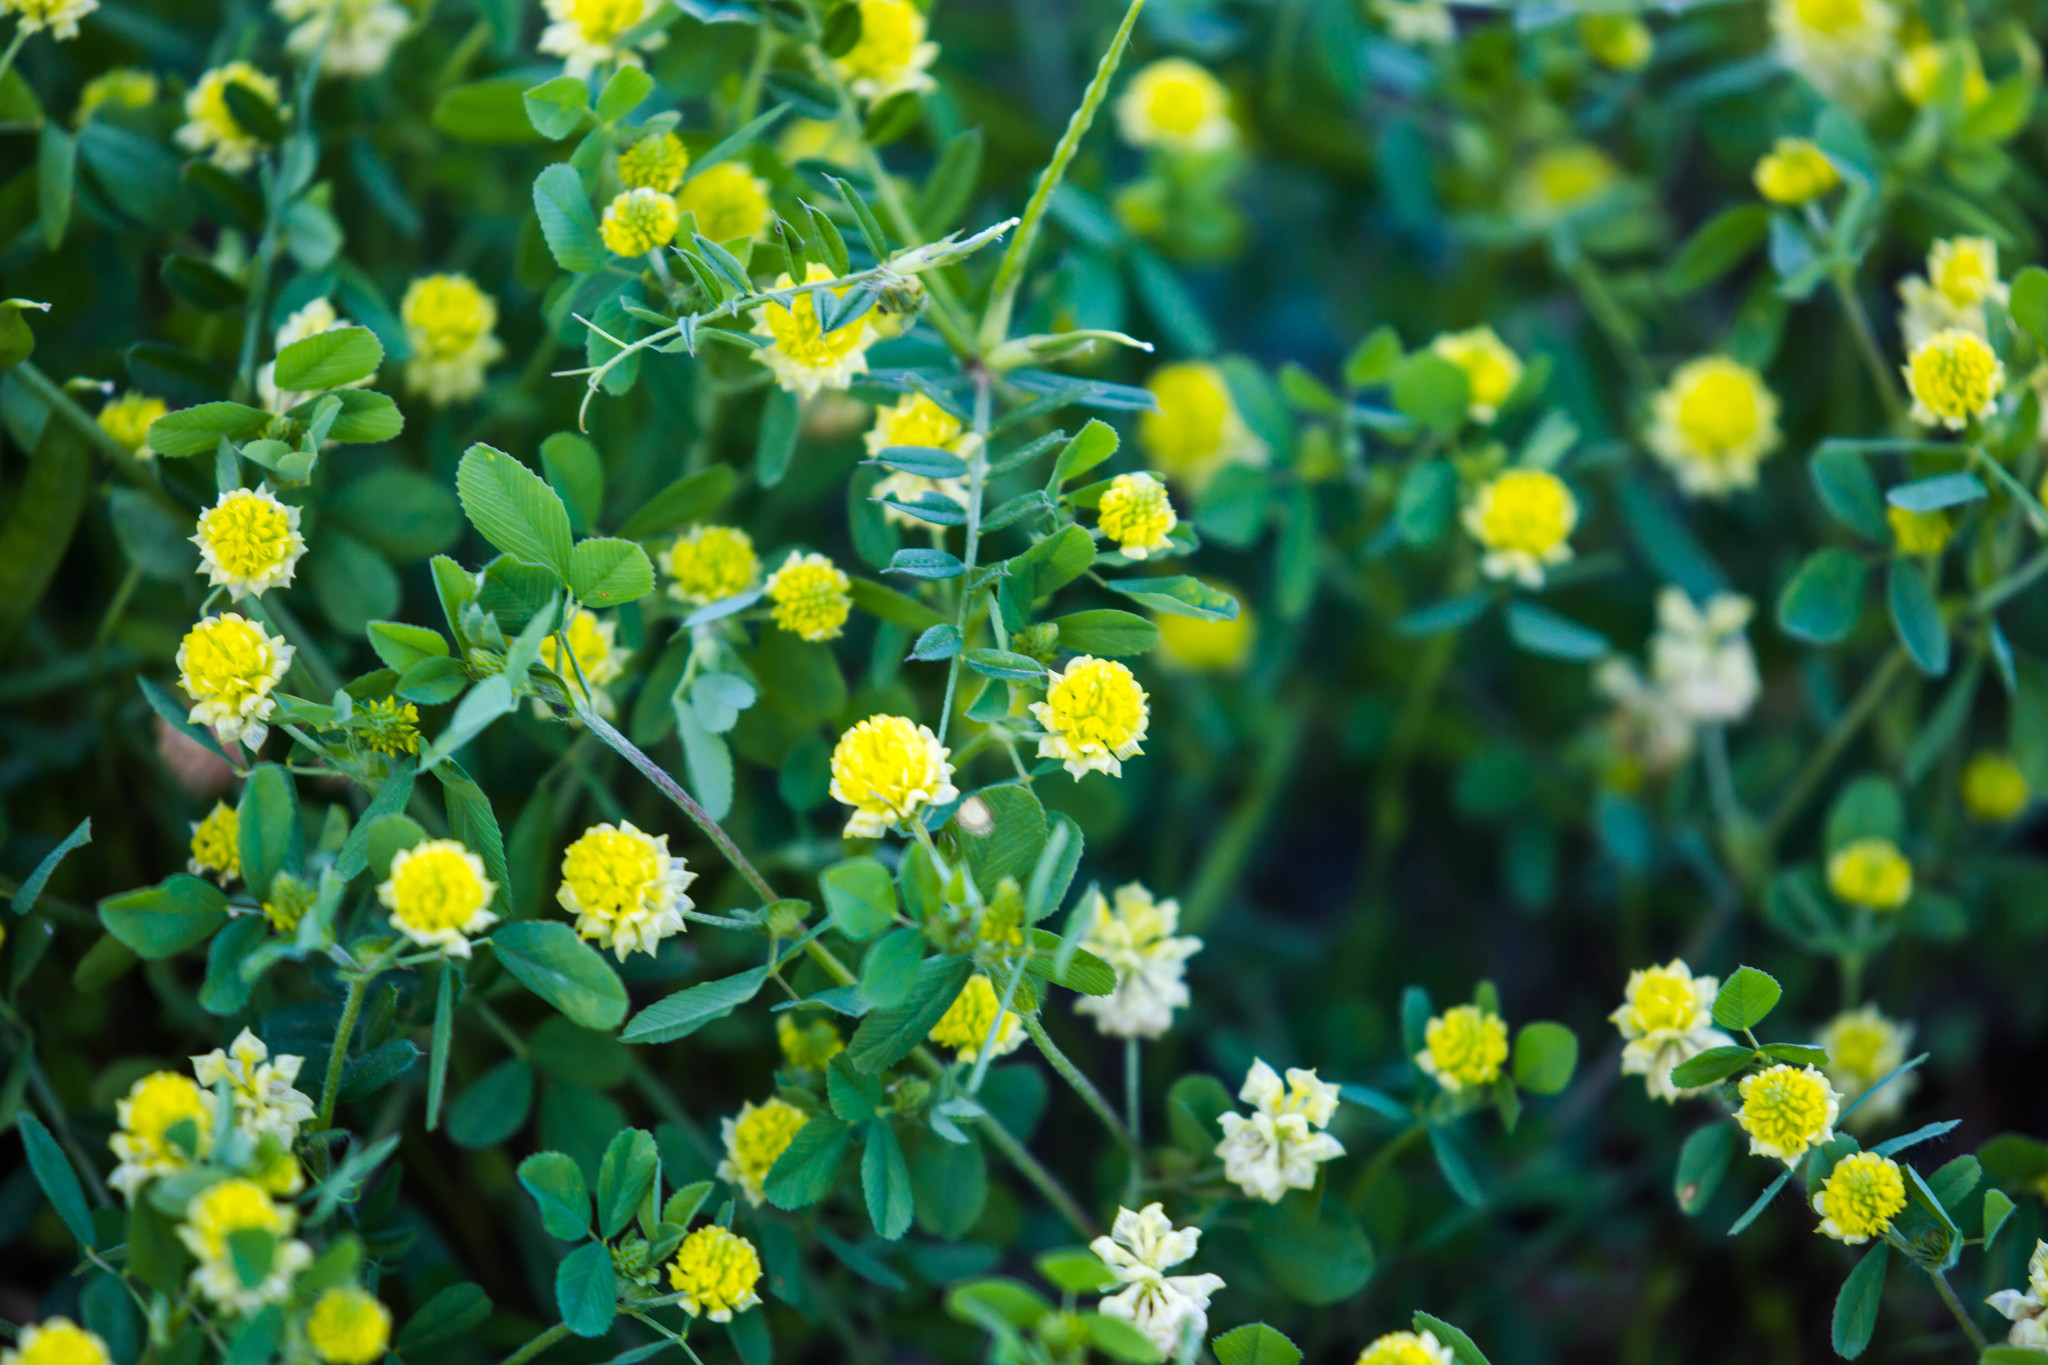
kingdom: Plantae
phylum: Tracheophyta
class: Magnoliopsida
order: Fabales
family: Fabaceae
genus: Trifolium
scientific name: Trifolium campestre
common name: Field clover
